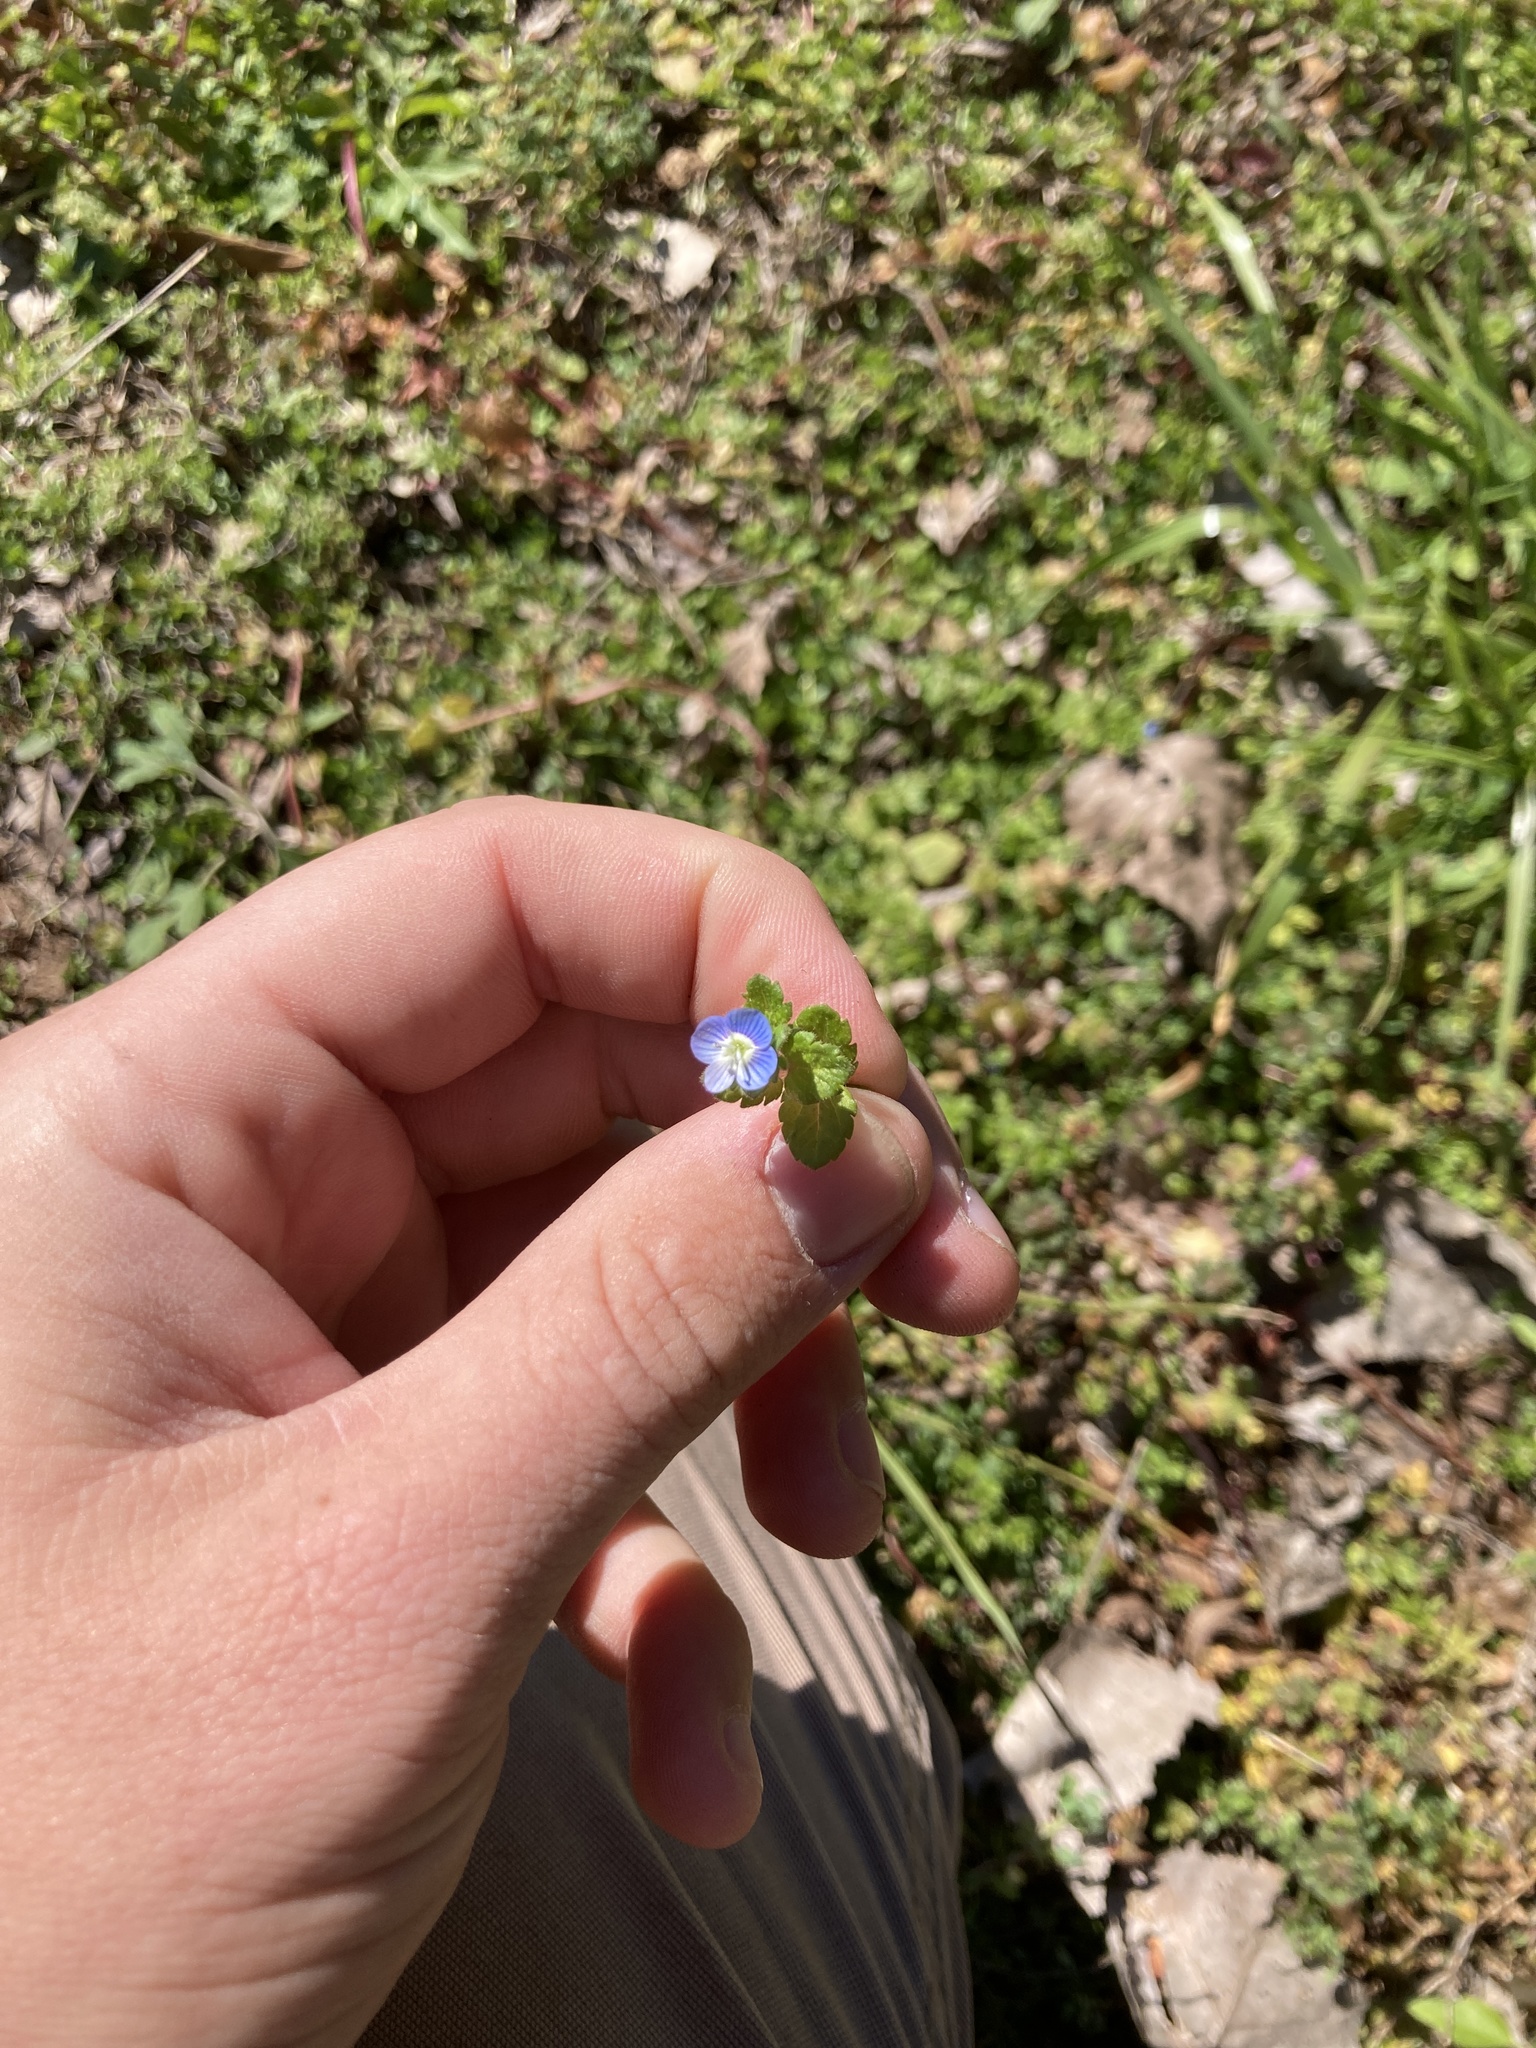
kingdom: Plantae
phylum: Tracheophyta
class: Magnoliopsida
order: Lamiales
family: Plantaginaceae
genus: Veronica
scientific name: Veronica persica
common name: Common field-speedwell
